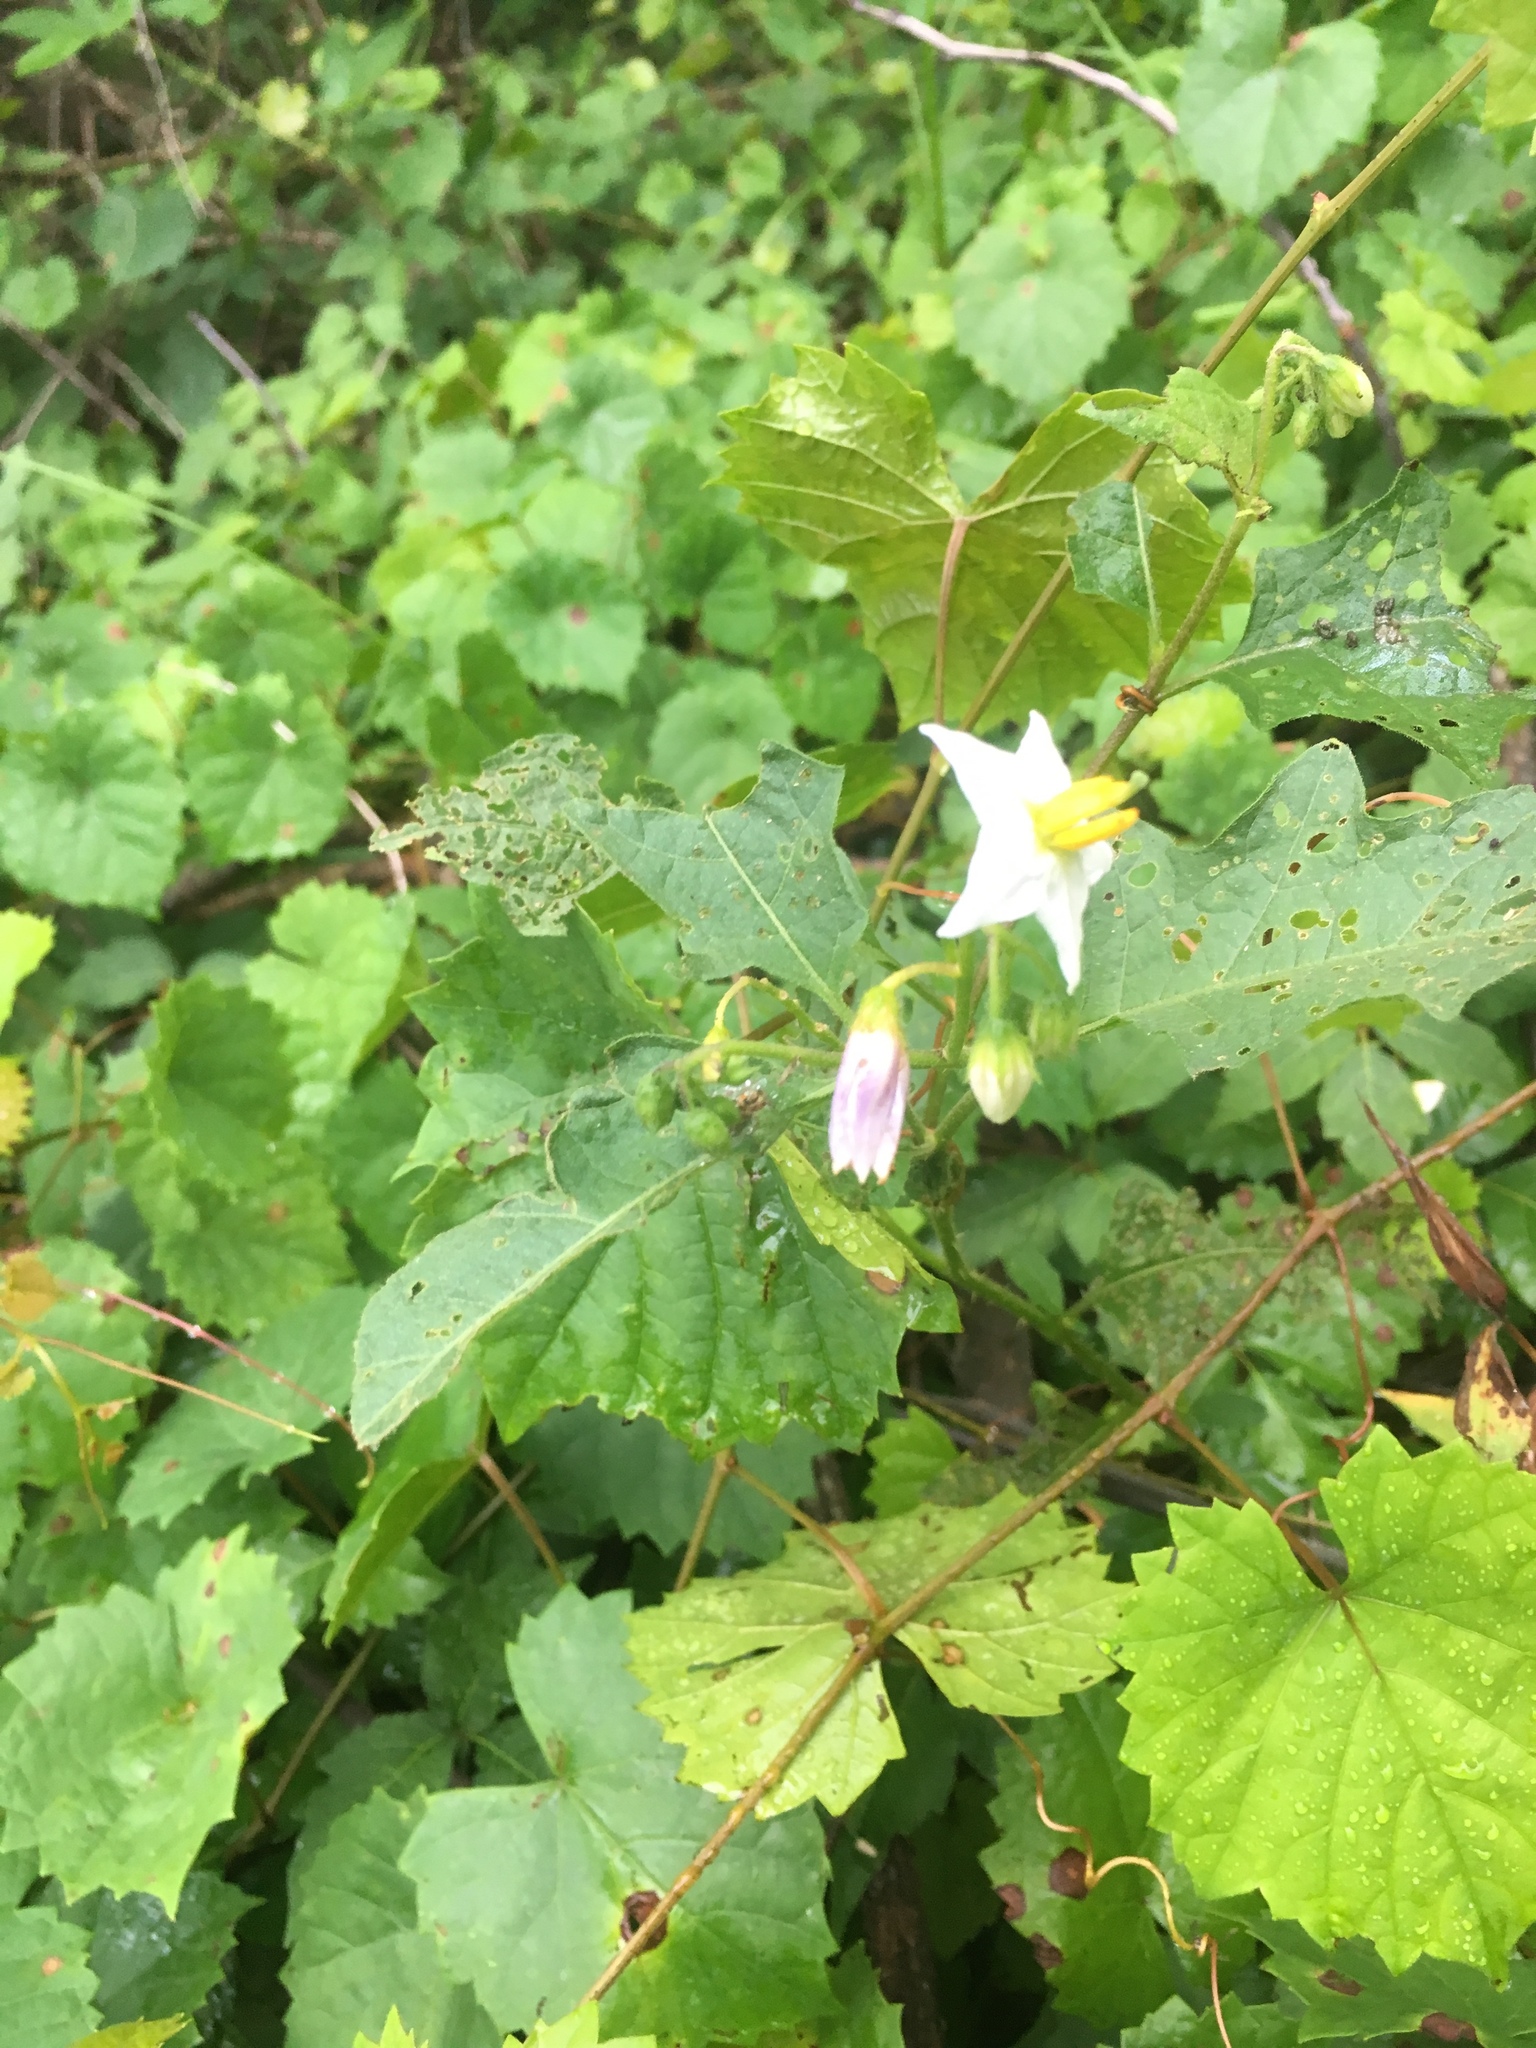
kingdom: Plantae
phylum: Tracheophyta
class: Magnoliopsida
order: Solanales
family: Solanaceae
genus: Solanum
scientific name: Solanum carolinense
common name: Horse-nettle
